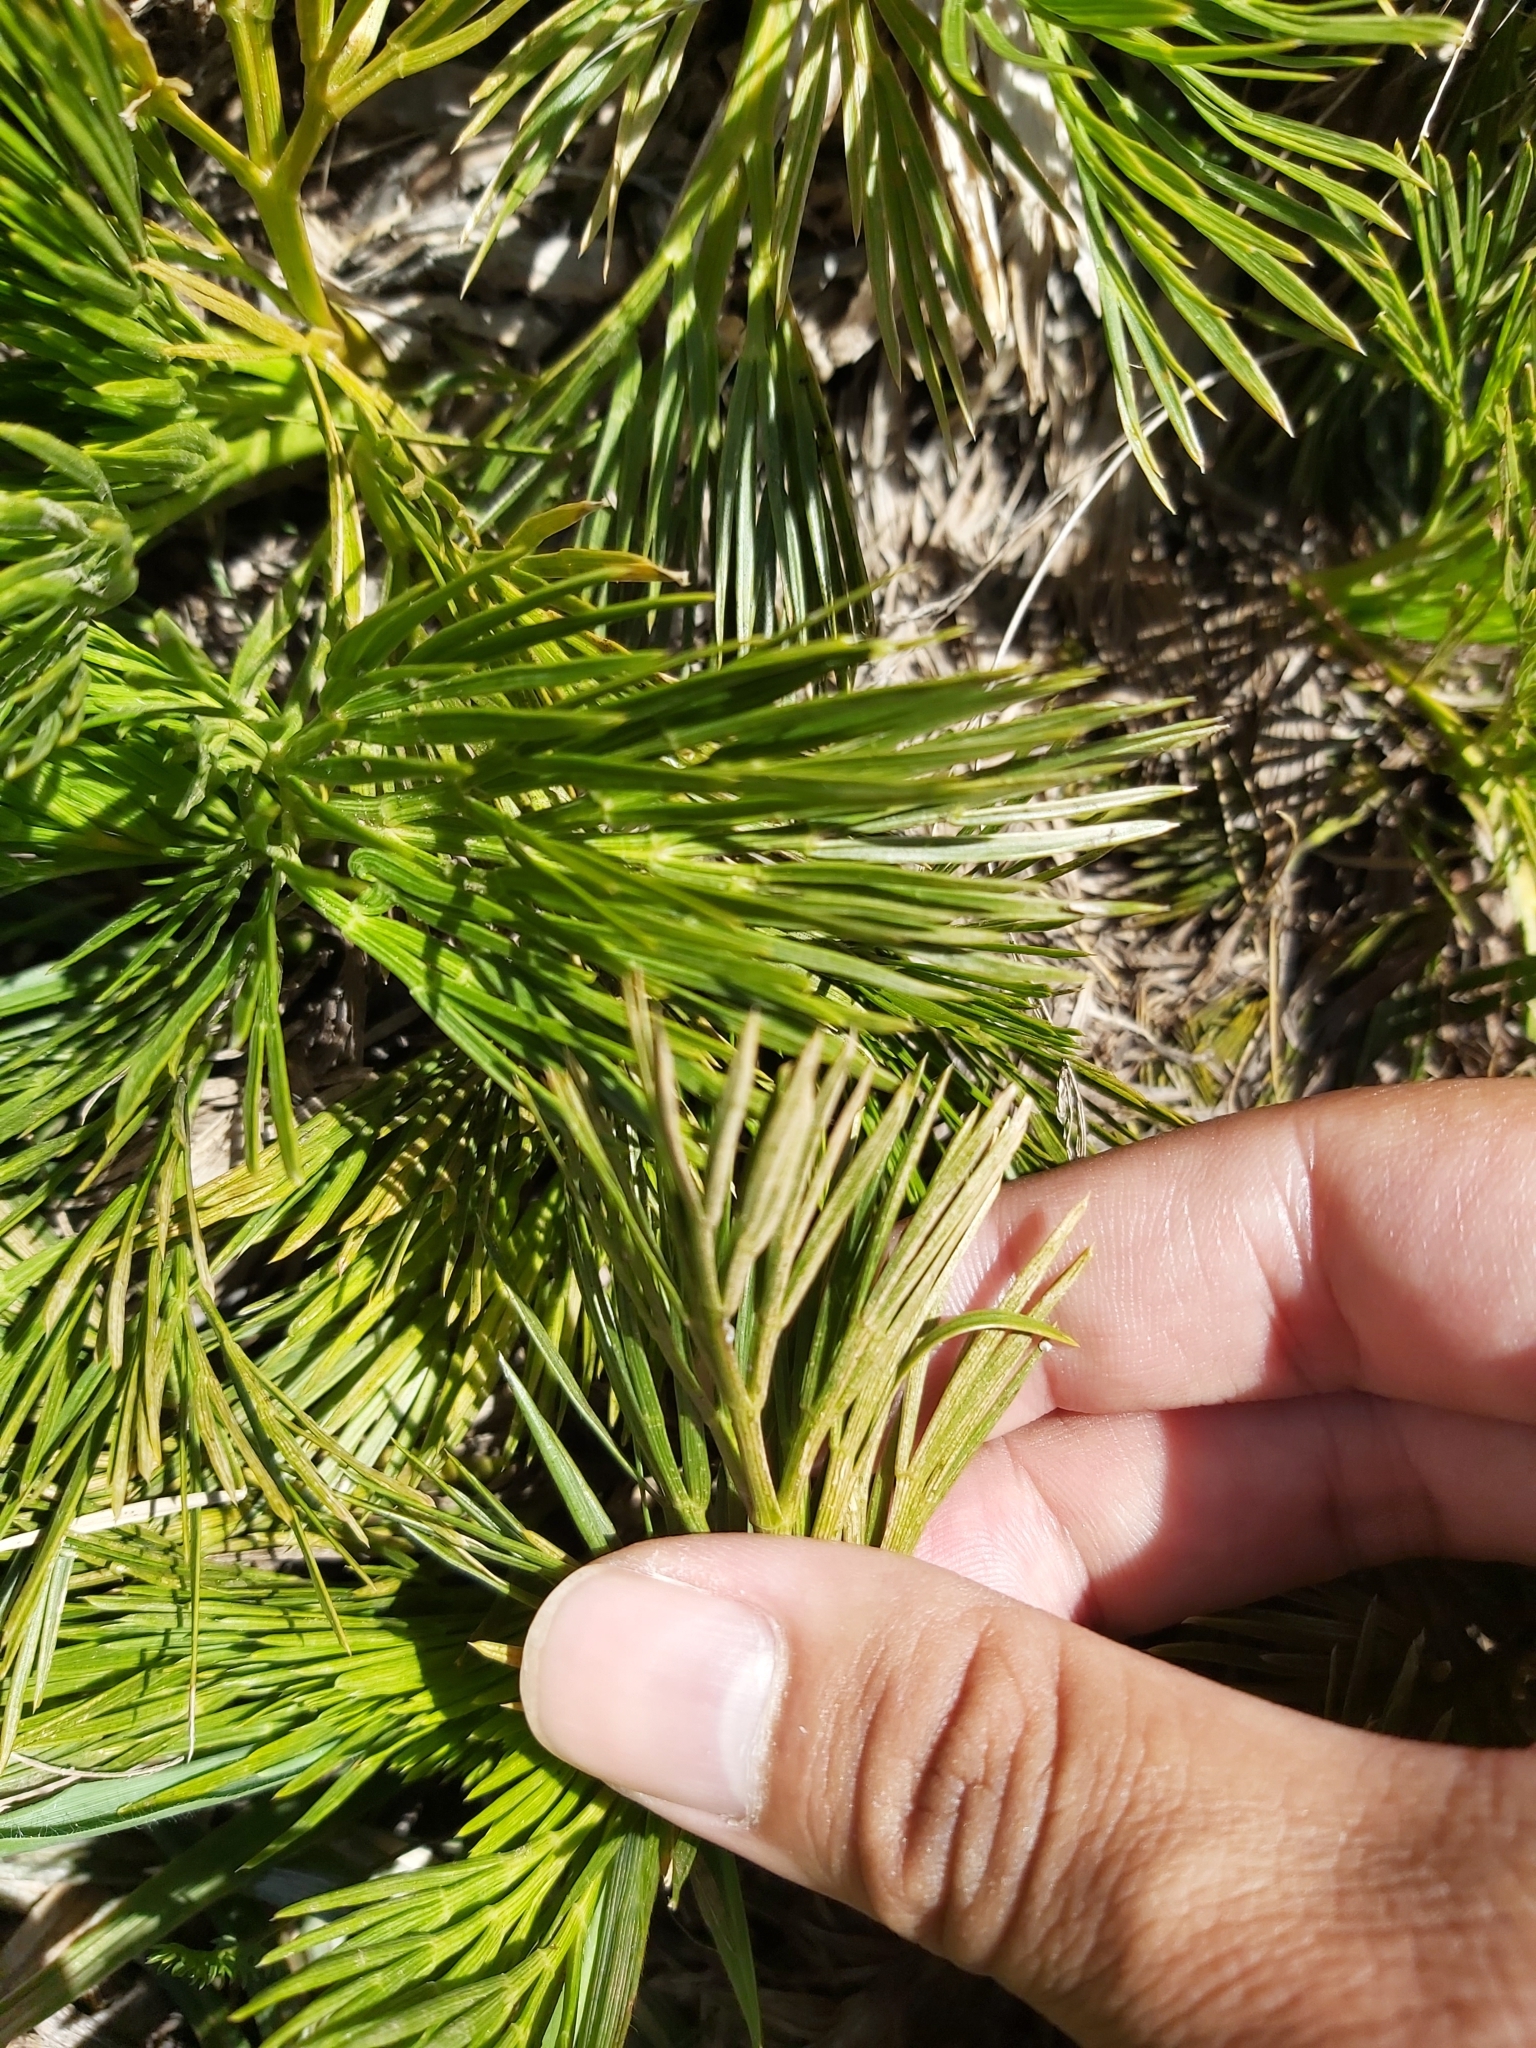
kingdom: Plantae
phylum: Tracheophyta
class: Magnoliopsida
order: Apiales
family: Apiaceae
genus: Aciphylla
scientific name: Aciphylla glacialis
